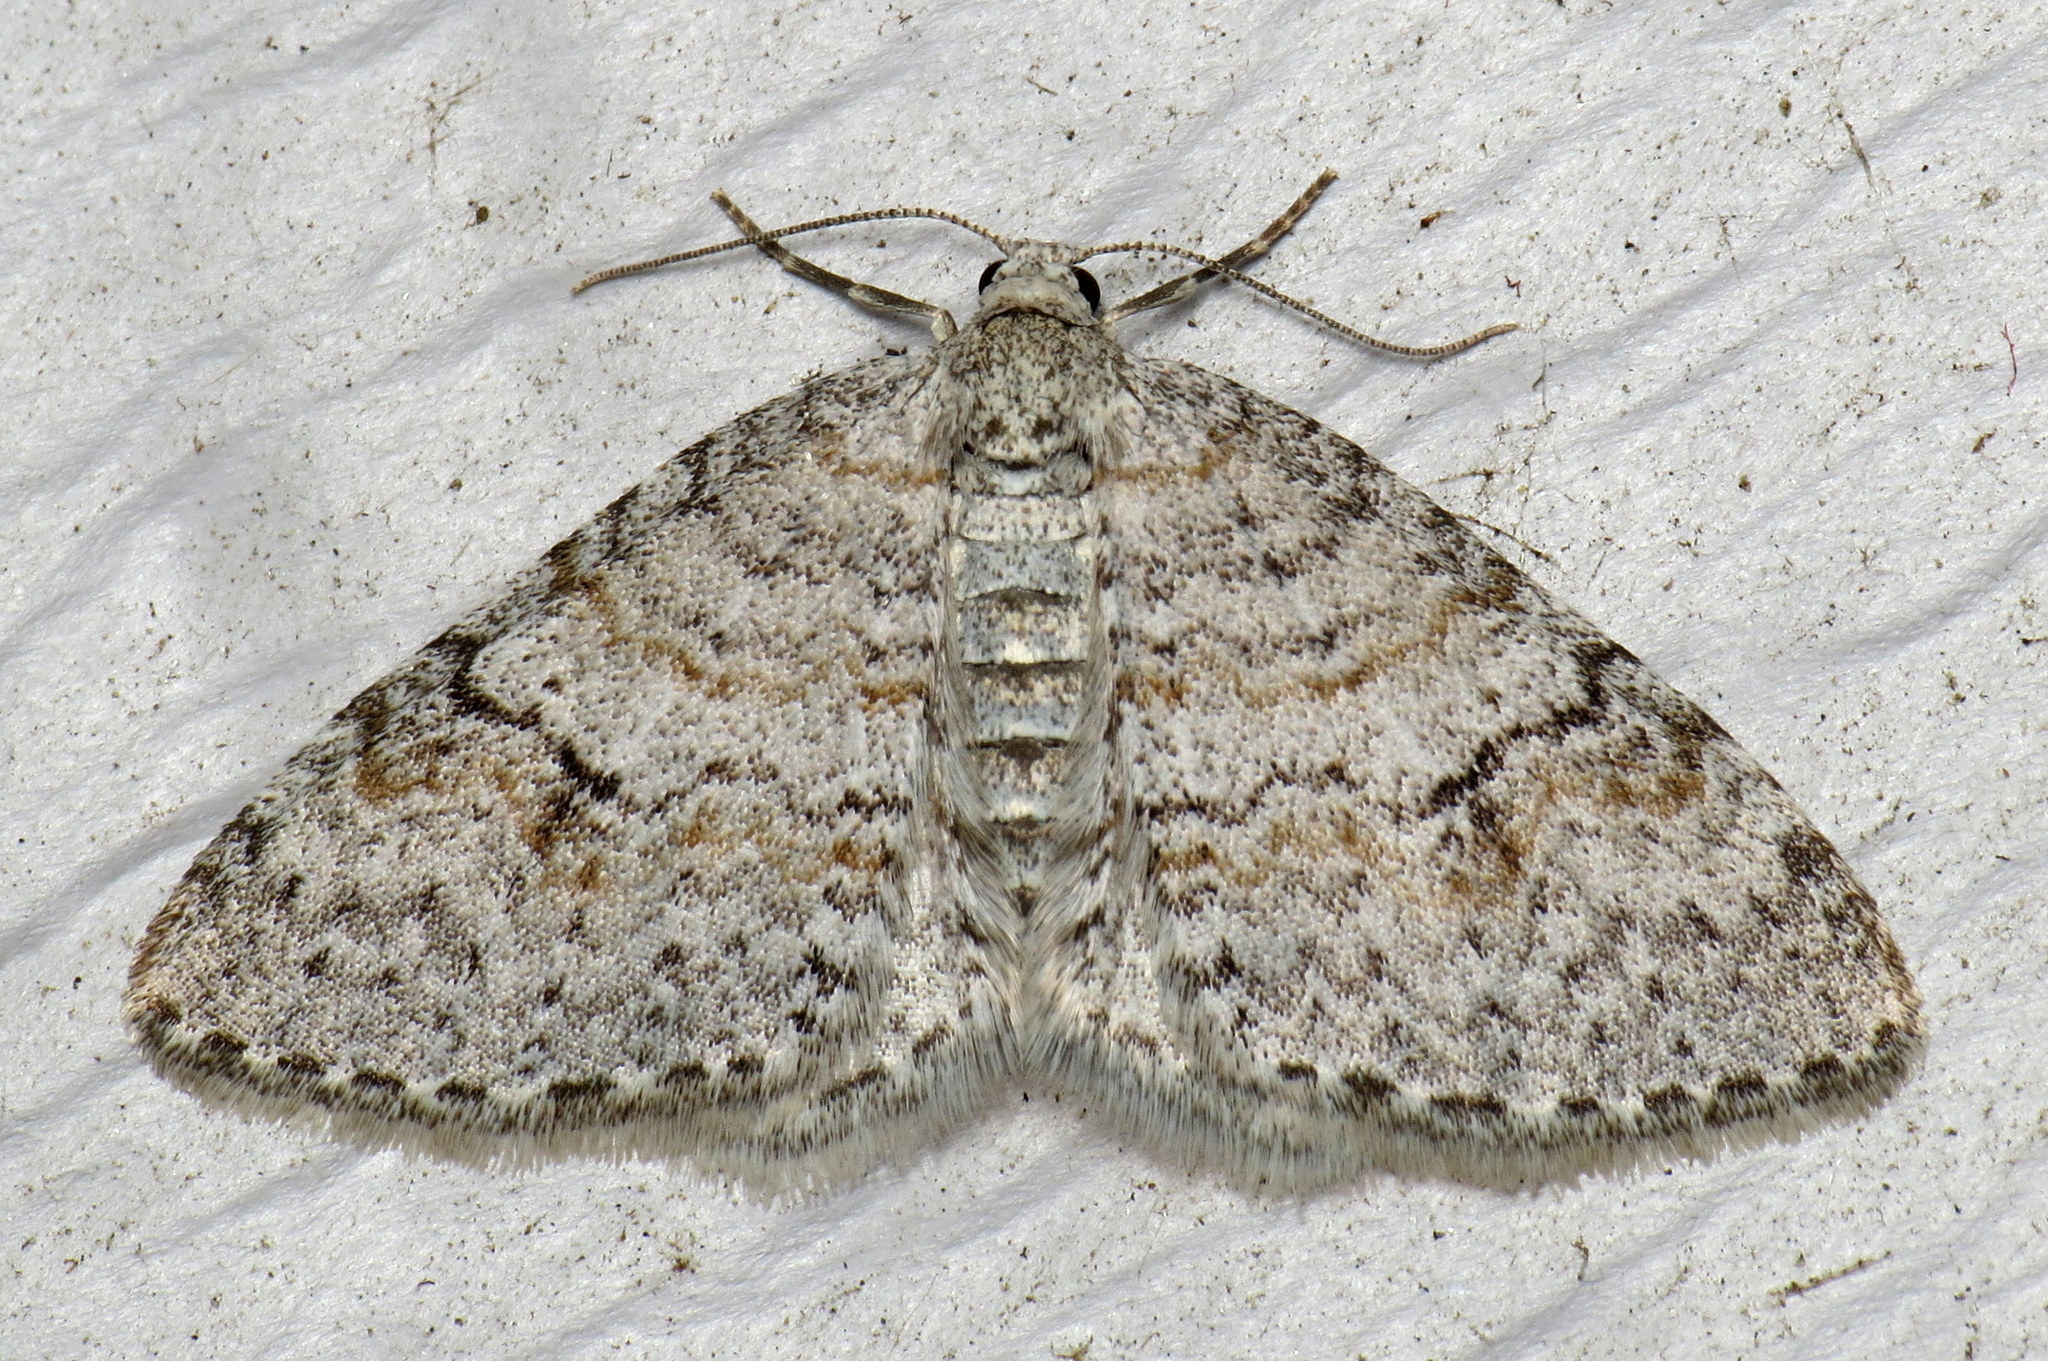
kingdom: Animalia
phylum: Arthropoda
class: Insecta
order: Lepidoptera
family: Geometridae
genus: Venusia
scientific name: Venusia comptaria
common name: Brown-shaded carpet
